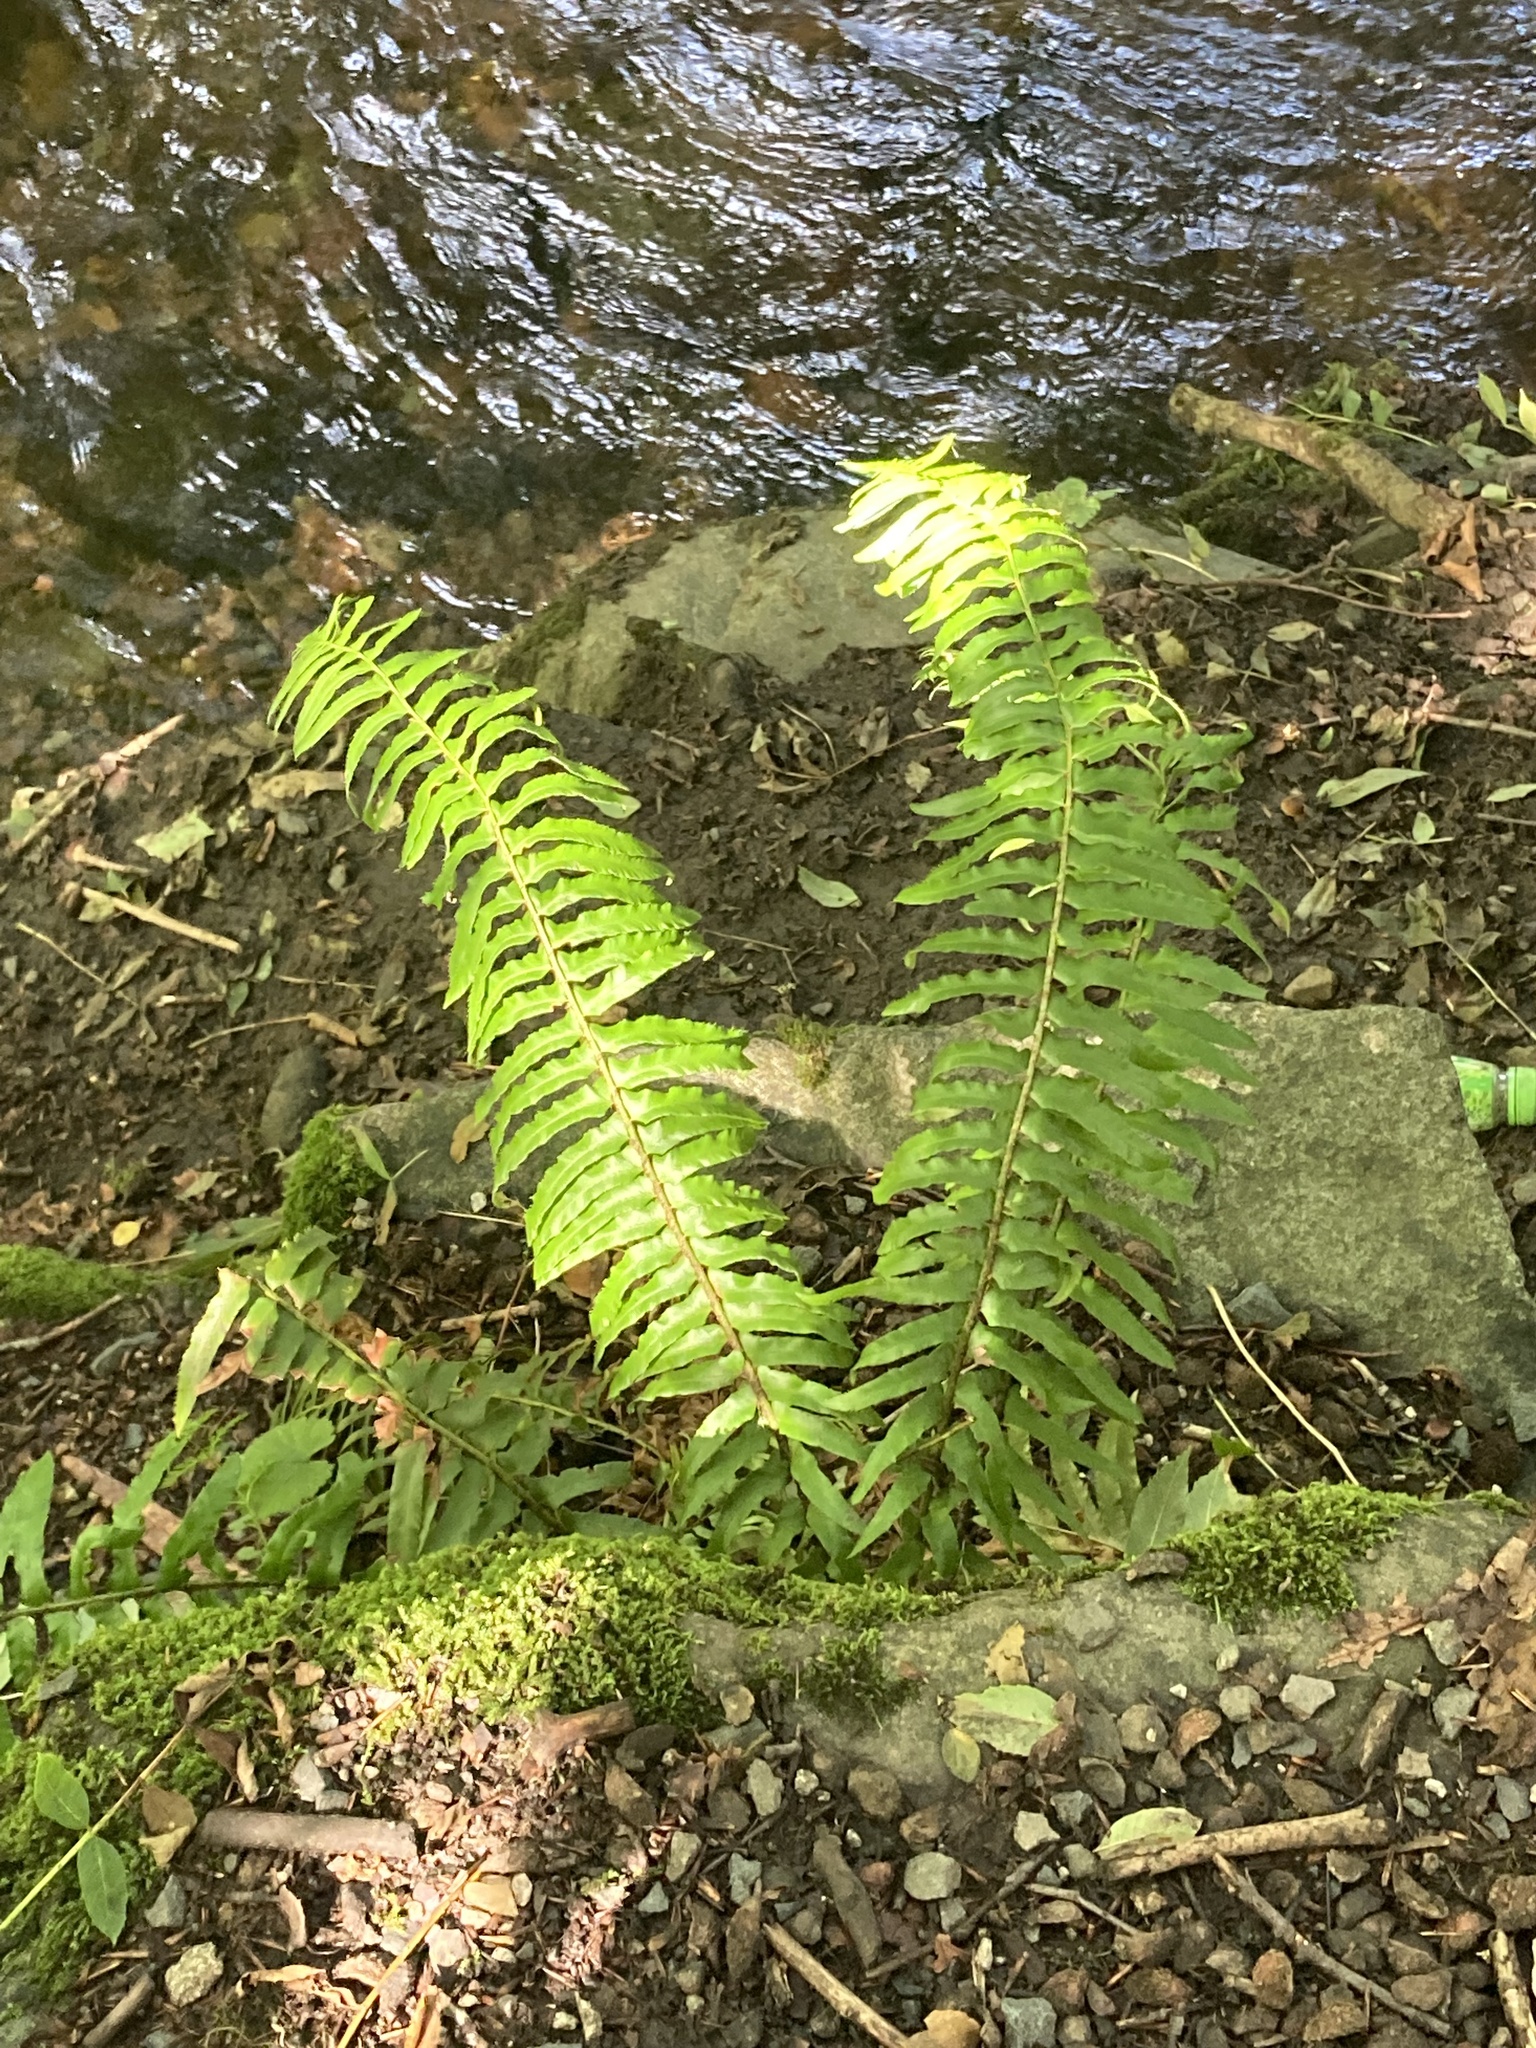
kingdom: Plantae
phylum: Tracheophyta
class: Polypodiopsida
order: Polypodiales
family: Dryopteridaceae
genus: Polystichum
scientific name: Polystichum munitum
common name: Western sword-fern
